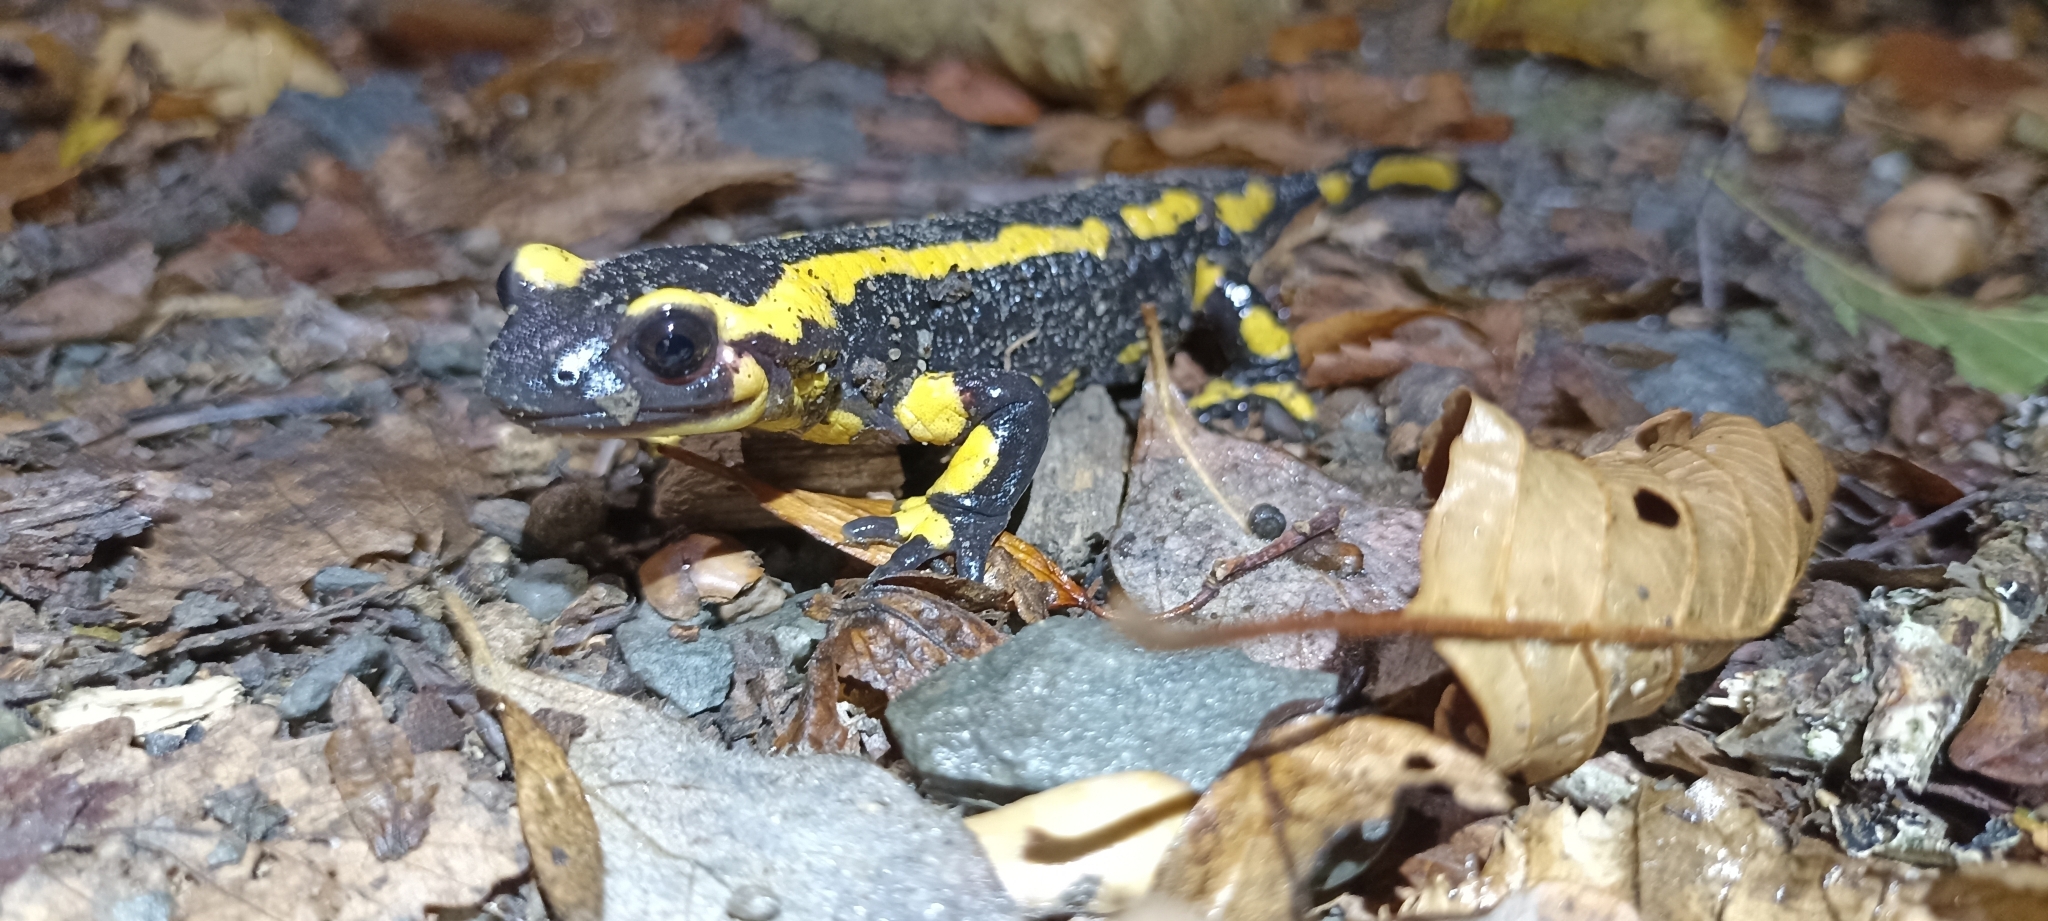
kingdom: Animalia
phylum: Chordata
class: Amphibia
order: Caudata
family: Salamandridae
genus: Salamandra
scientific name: Salamandra salamandra
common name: Fire salamander
